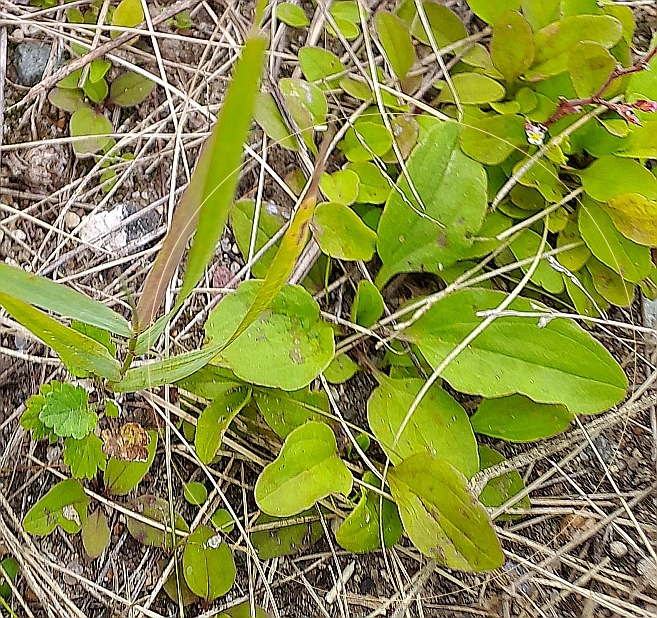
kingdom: Plantae
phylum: Tracheophyta
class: Magnoliopsida
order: Lamiales
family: Plantaginaceae
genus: Plantago
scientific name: Plantago major
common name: Common plantain
